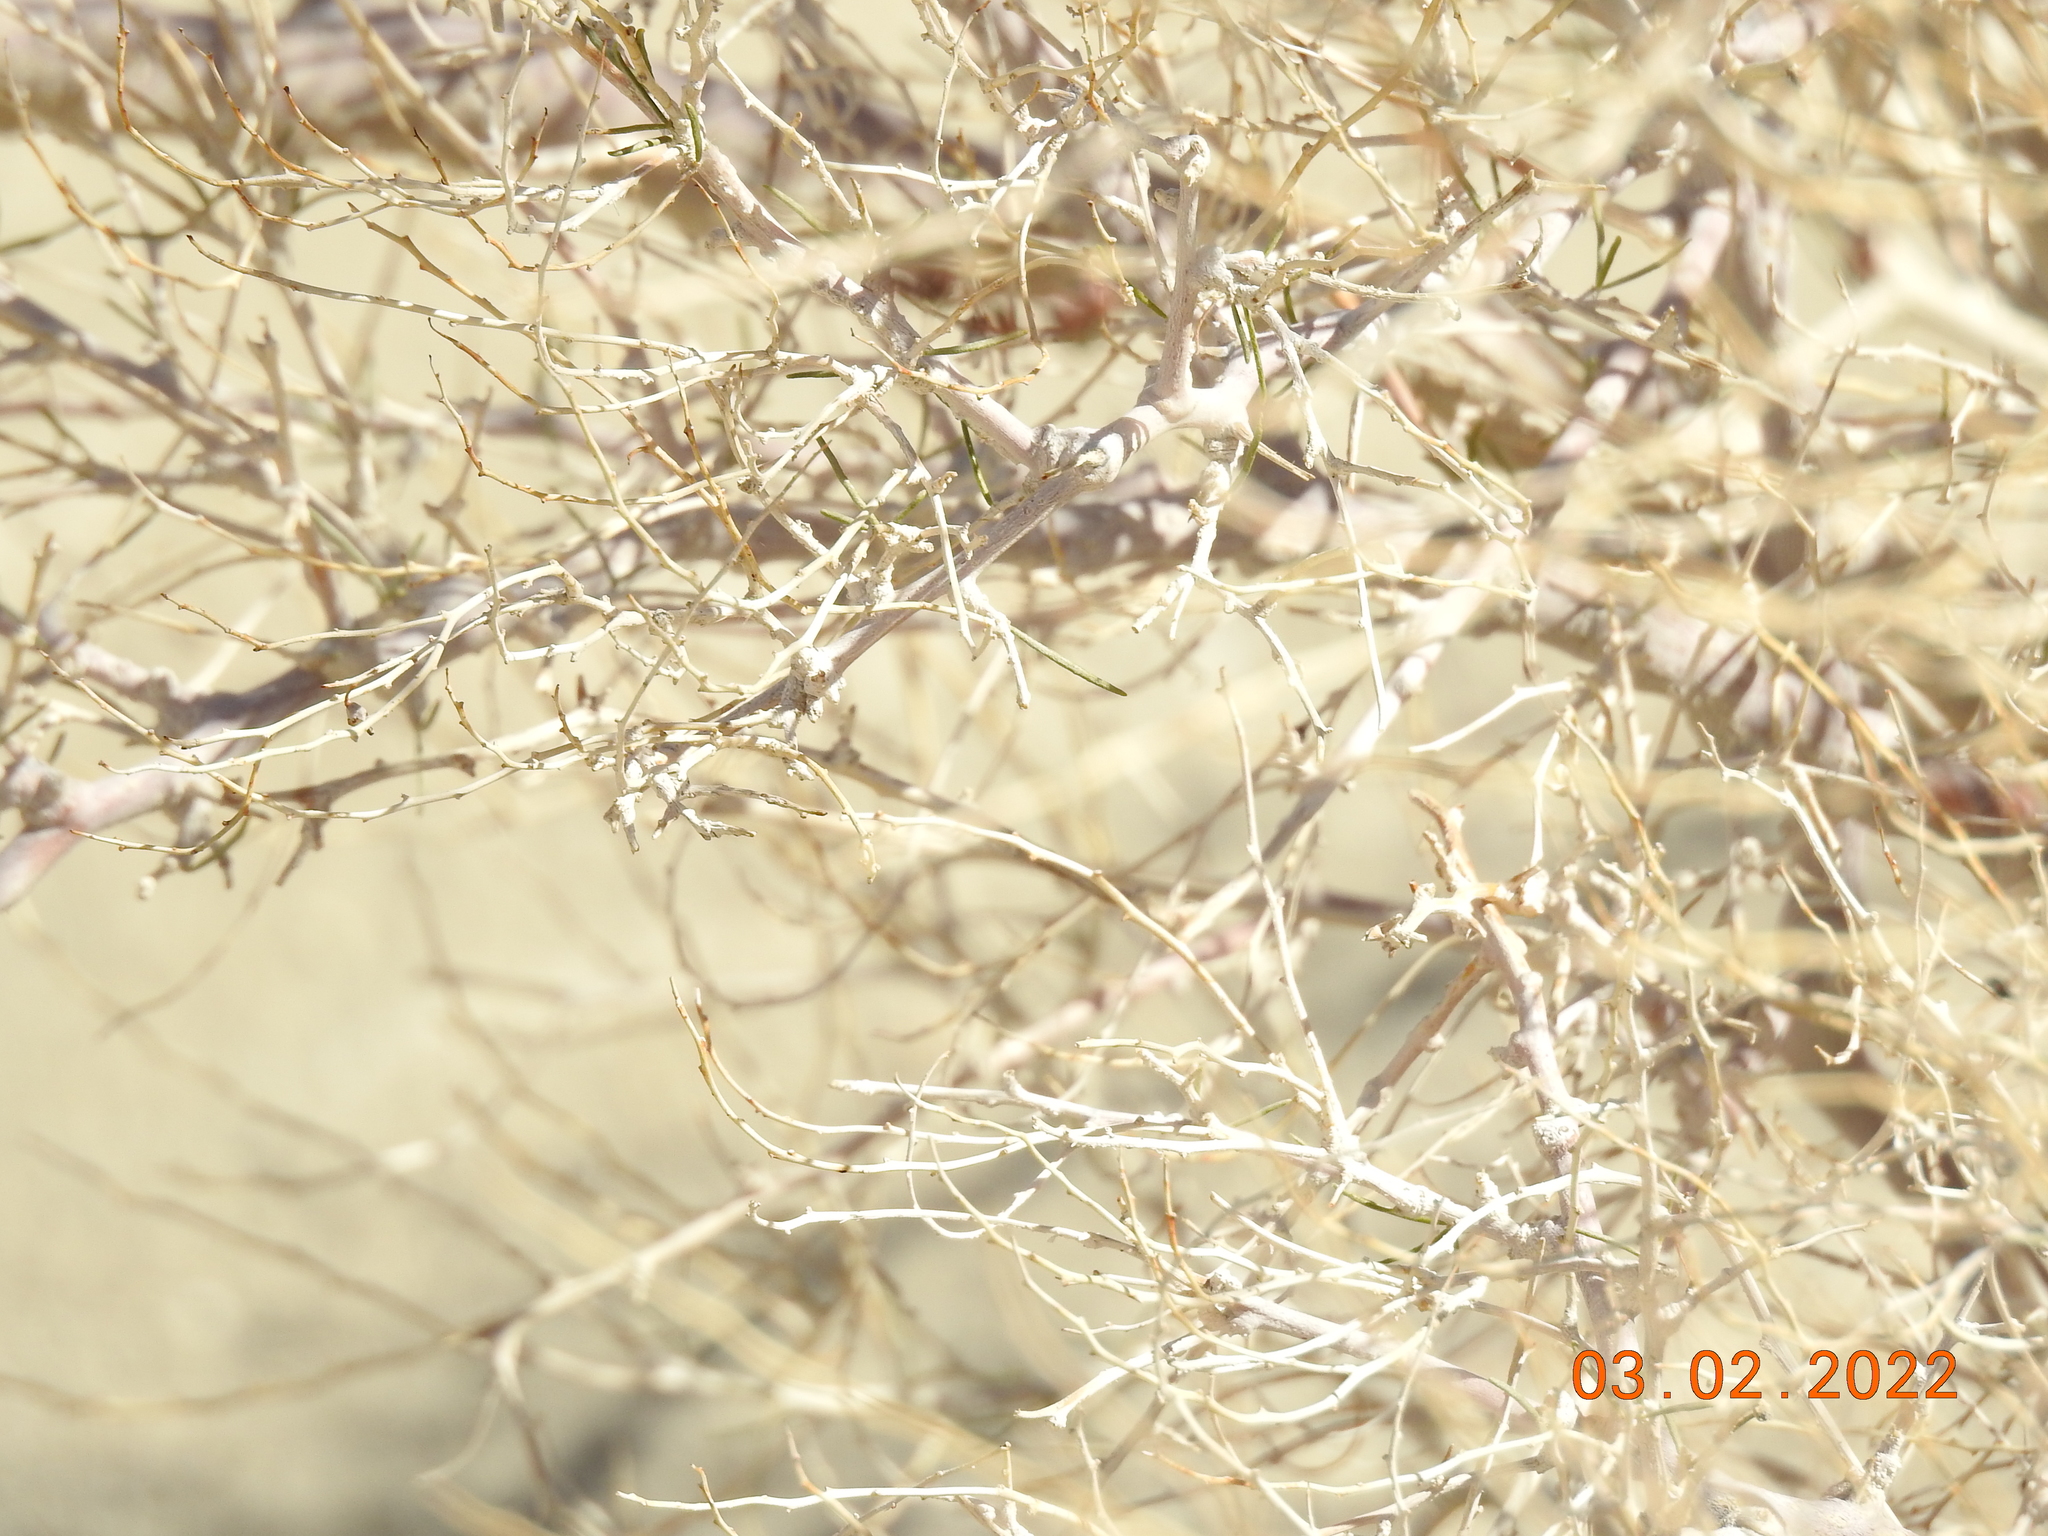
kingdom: Plantae
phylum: Tracheophyta
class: Magnoliopsida
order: Fabales
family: Fabaceae
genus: Psorothamnus
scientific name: Psorothamnus schottii
